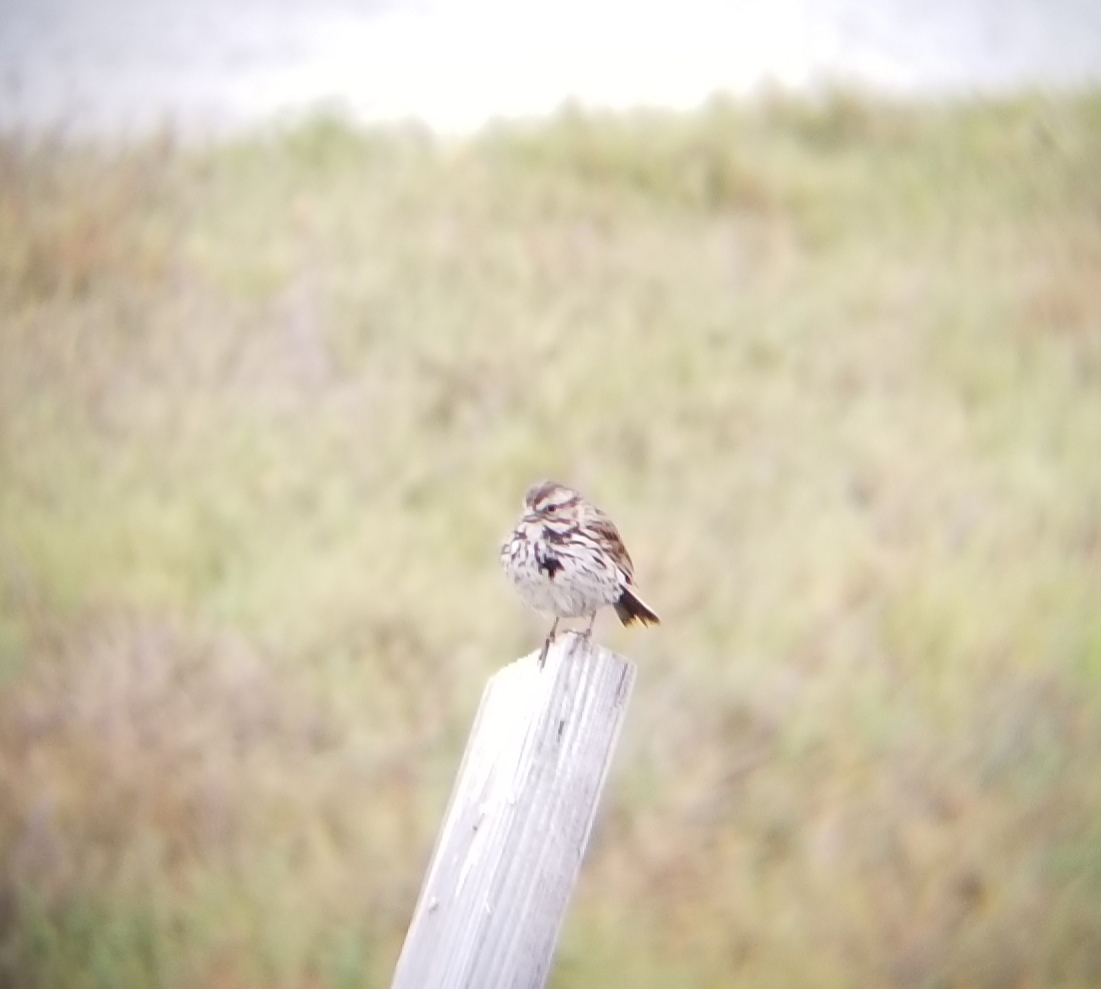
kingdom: Animalia
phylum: Chordata
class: Aves
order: Passeriformes
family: Passerellidae
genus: Melospiza
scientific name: Melospiza melodia
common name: Song sparrow
